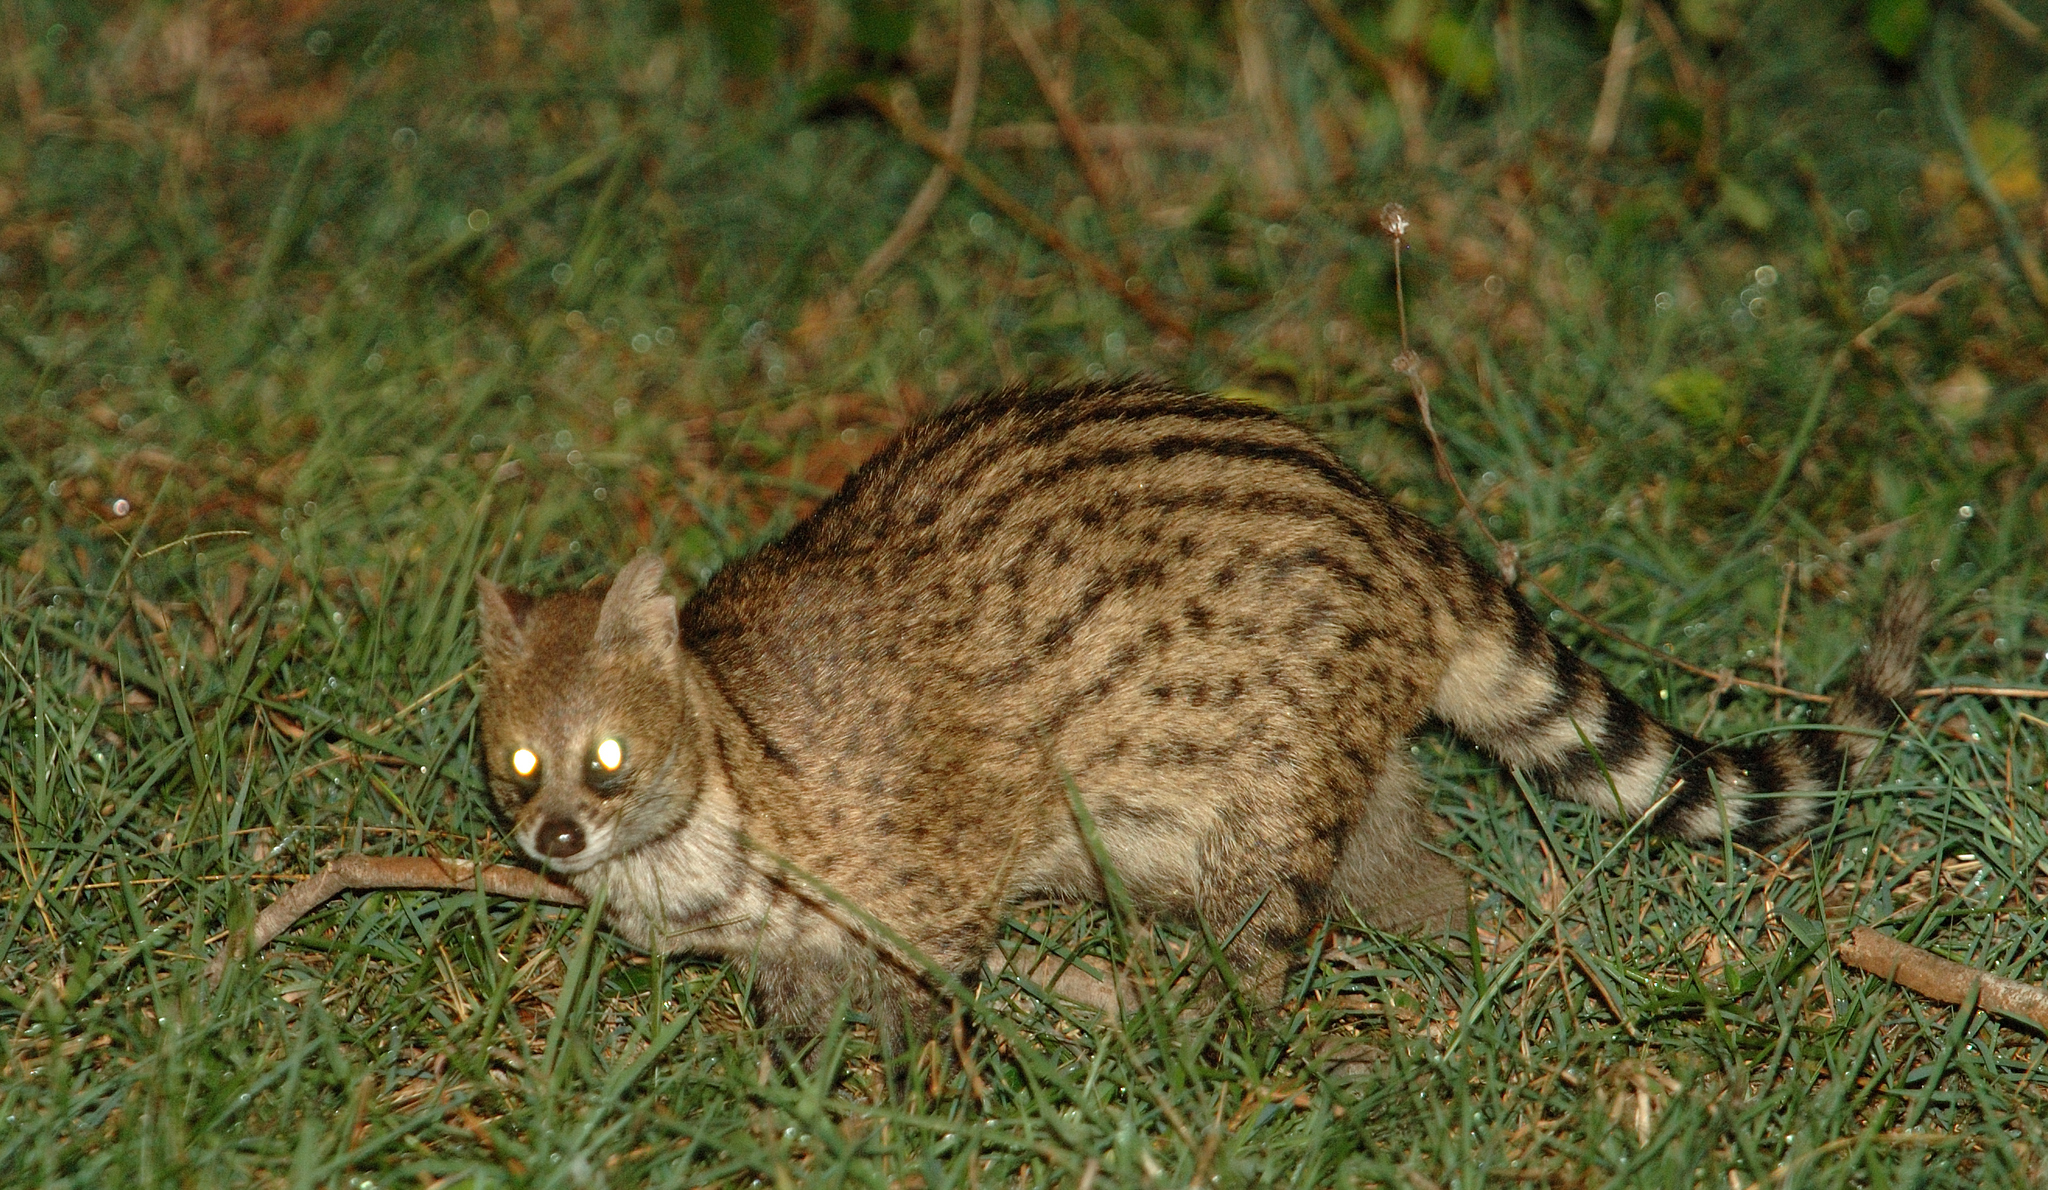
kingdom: Animalia
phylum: Chordata
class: Mammalia
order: Carnivora
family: Viverridae
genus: Viverricula
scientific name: Viverricula indica
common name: Small indian civet
